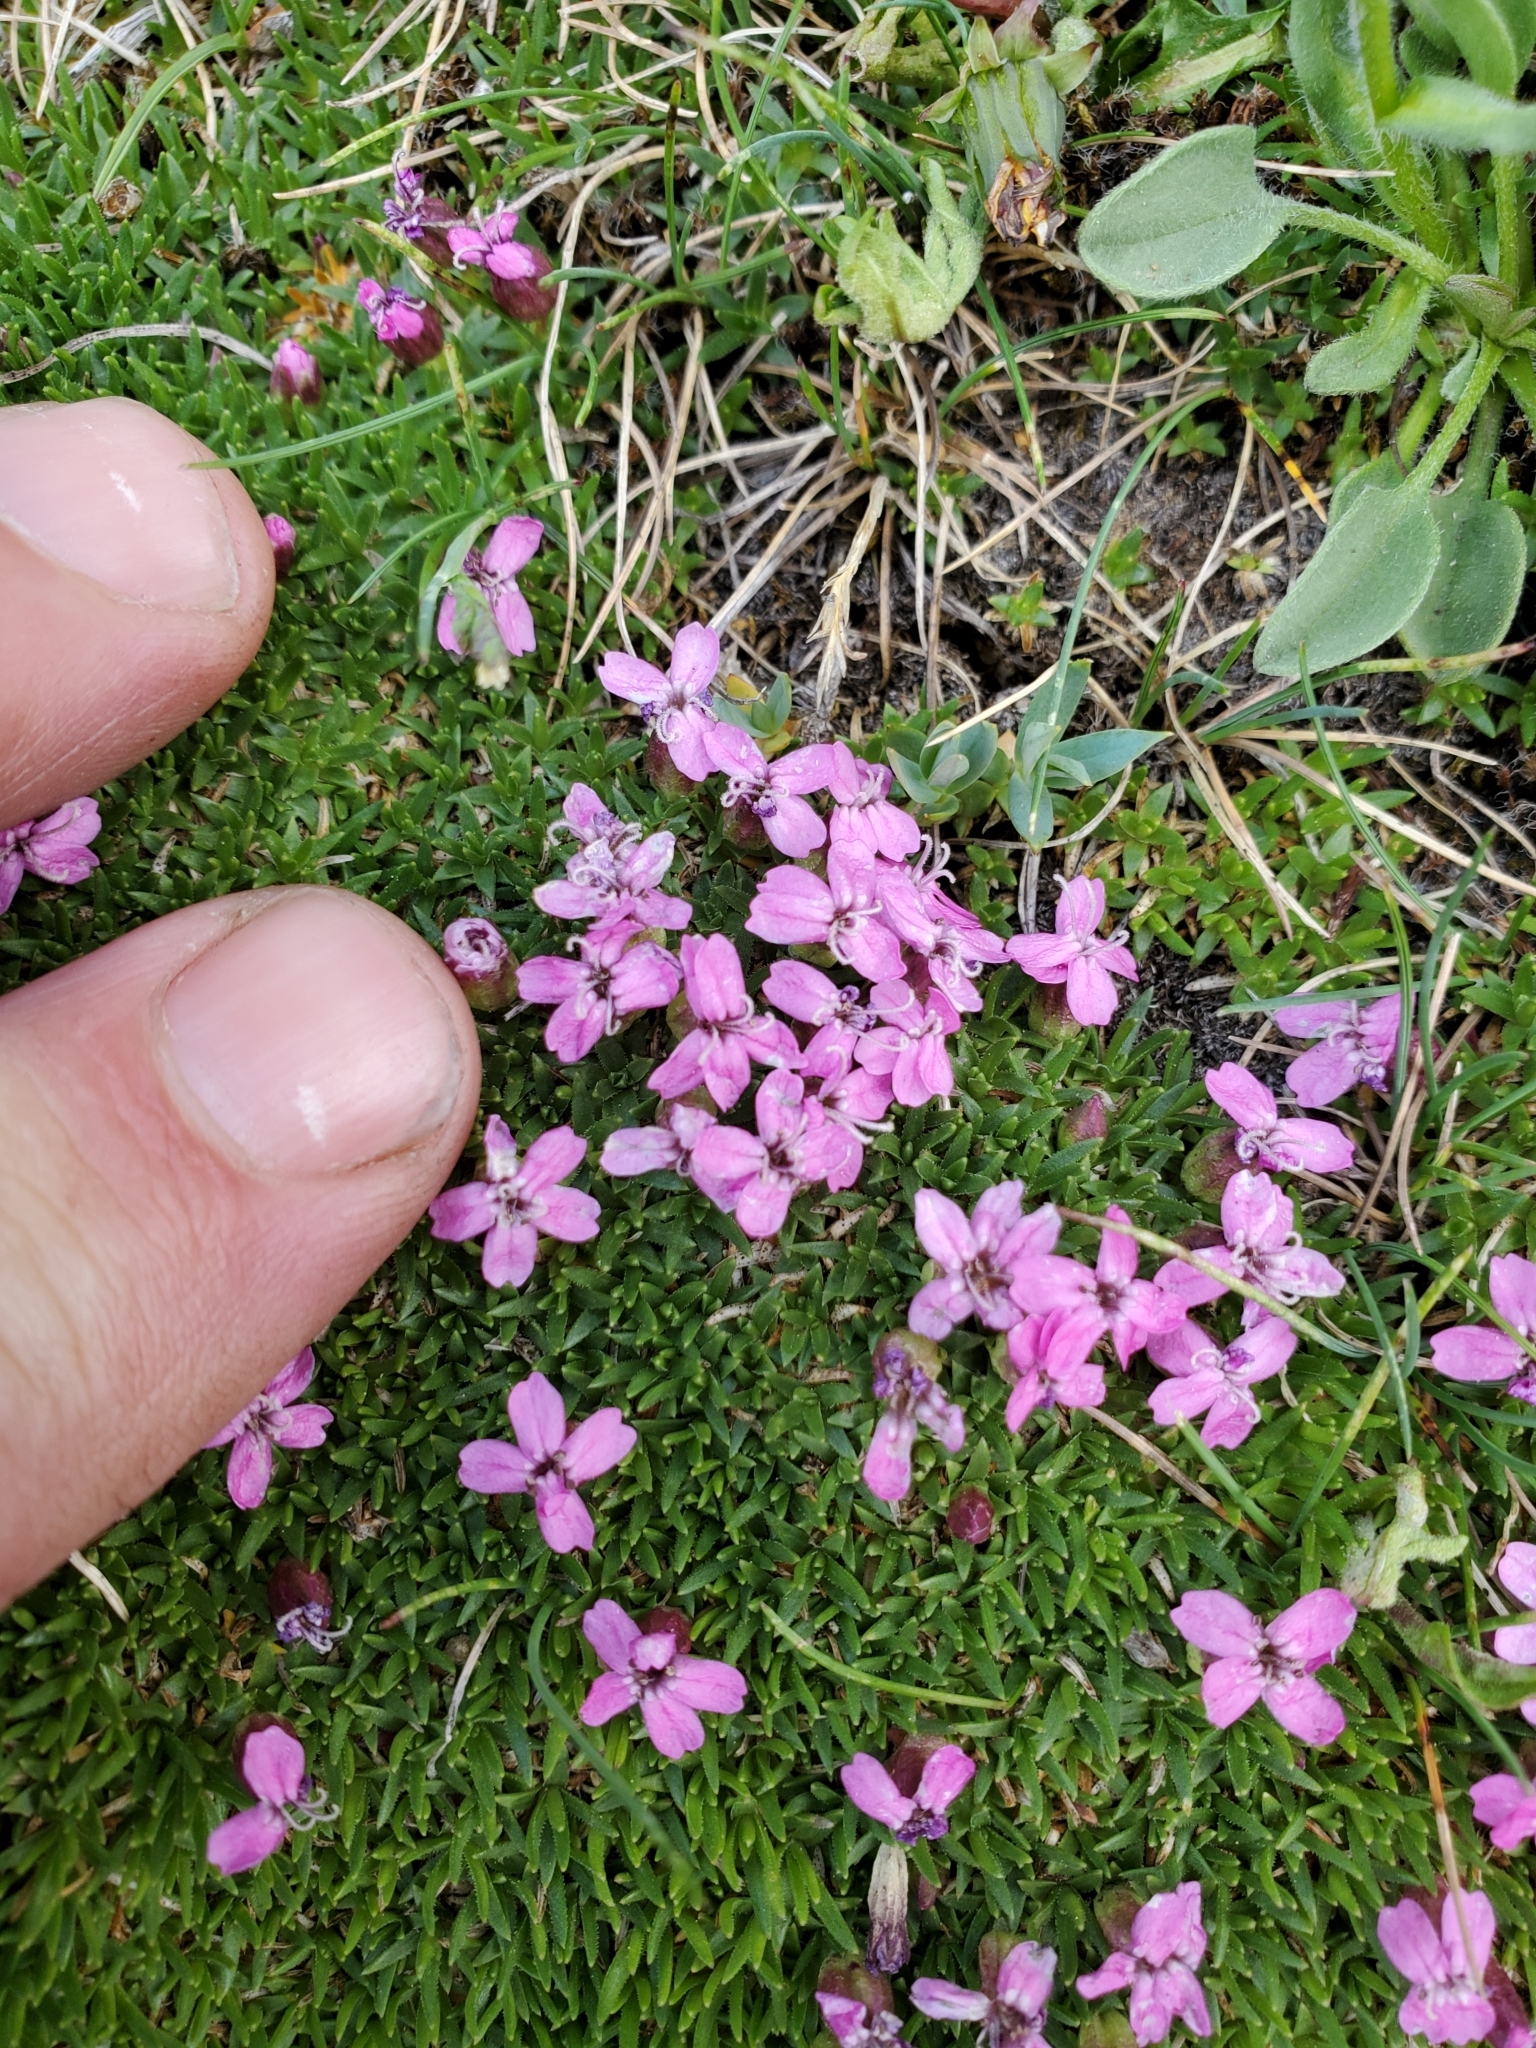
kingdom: Plantae
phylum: Tracheophyta
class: Magnoliopsida
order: Caryophyllales
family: Caryophyllaceae
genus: Silene
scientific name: Silene acaulis
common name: Moss campion
